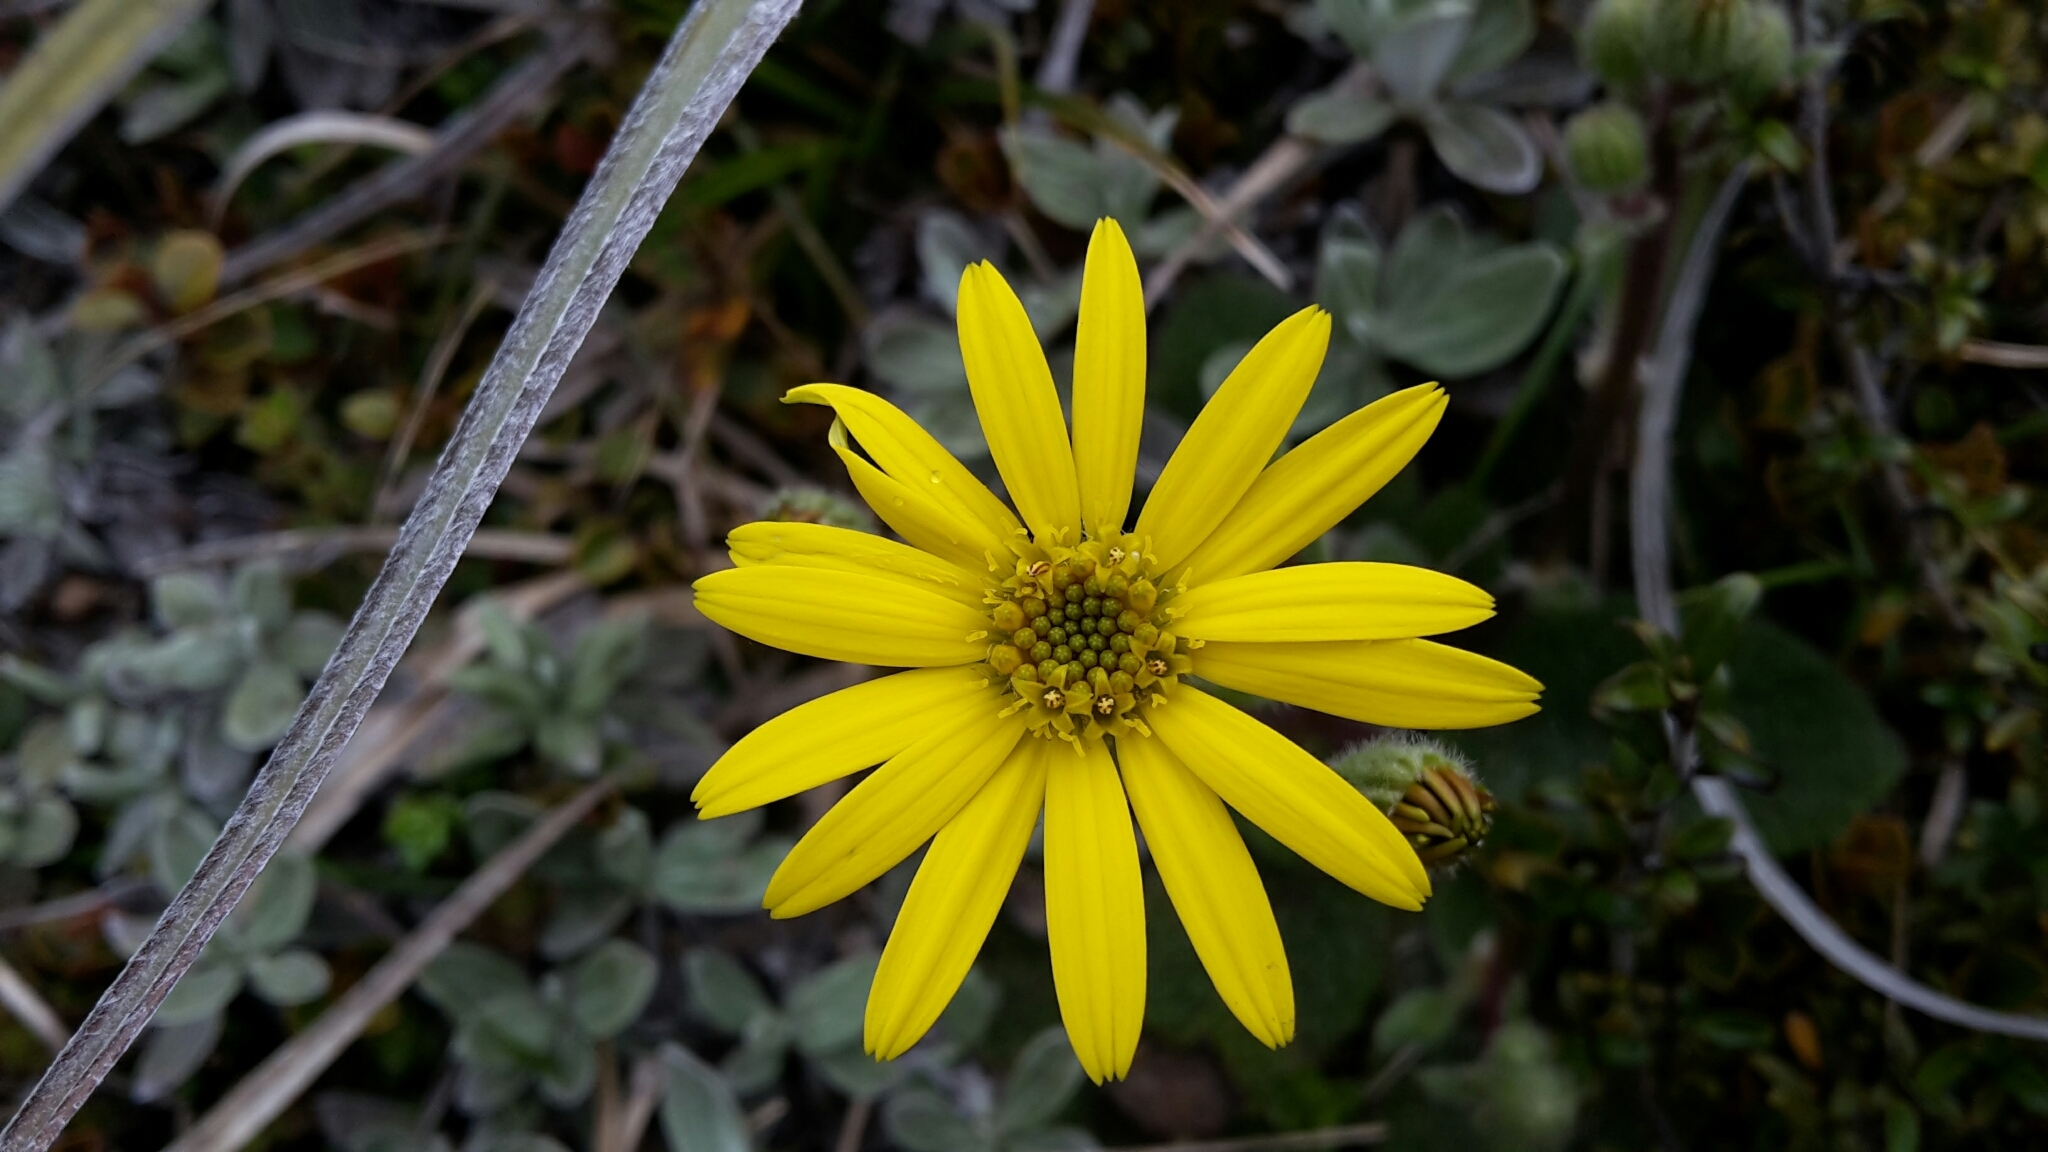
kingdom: Plantae
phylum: Tracheophyta
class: Magnoliopsida
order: Asterales
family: Asteraceae
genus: Brachyglottis
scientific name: Brachyglottis lagopus
